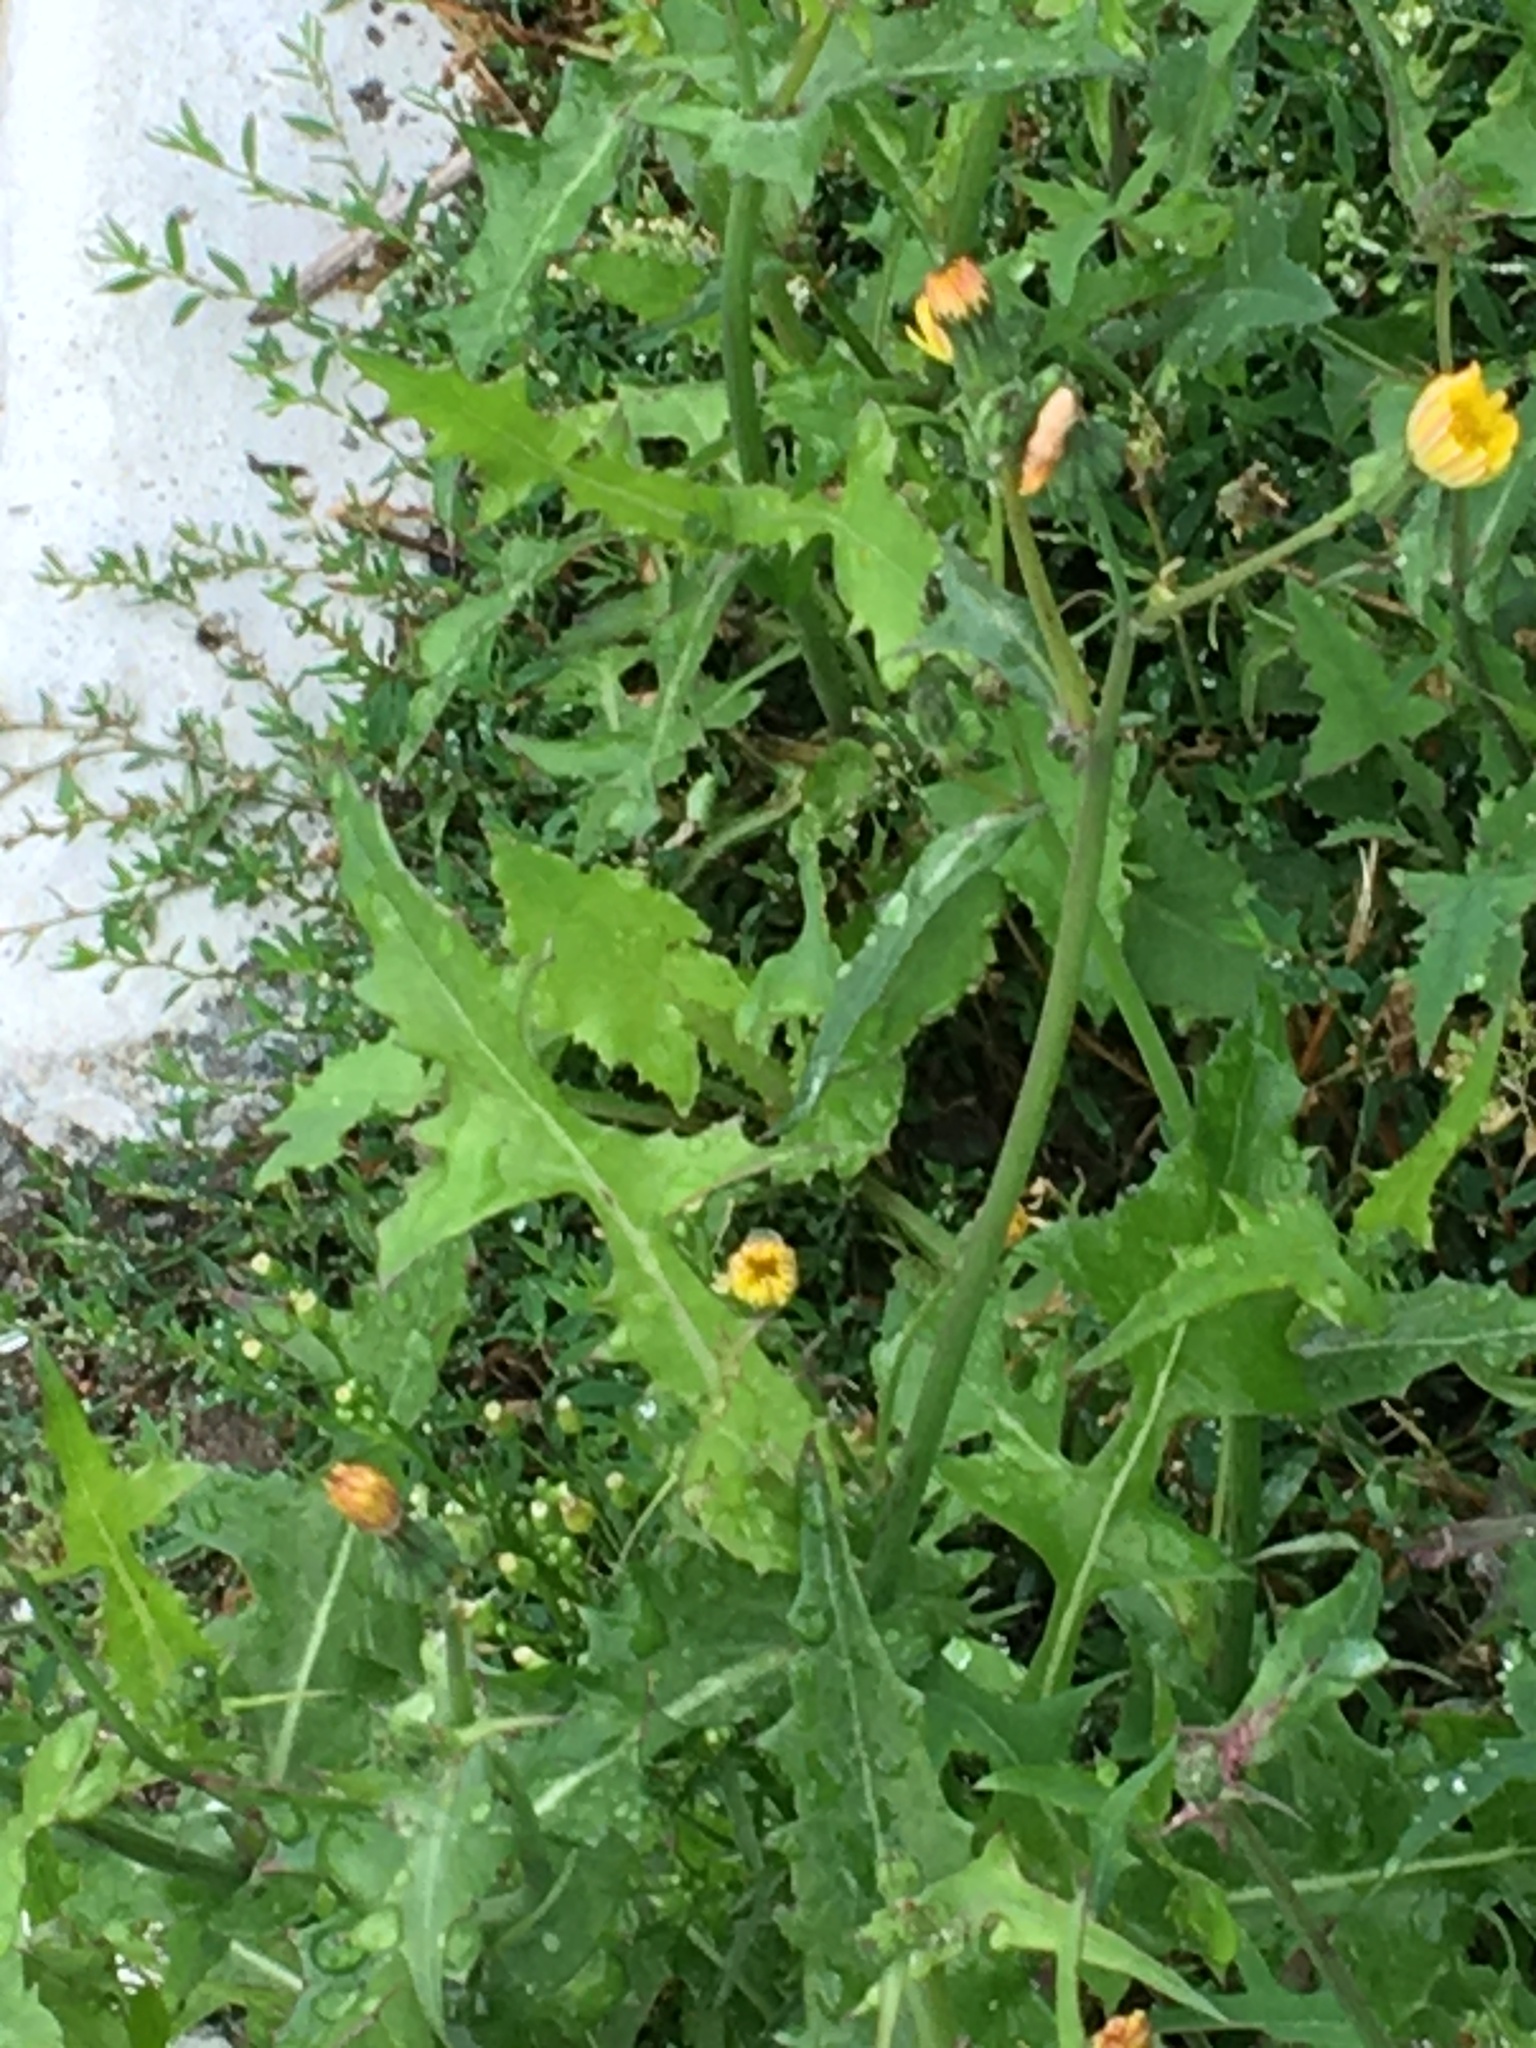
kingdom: Plantae
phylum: Tracheophyta
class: Magnoliopsida
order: Asterales
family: Asteraceae
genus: Sonchus
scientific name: Sonchus oleraceus
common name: Common sowthistle
